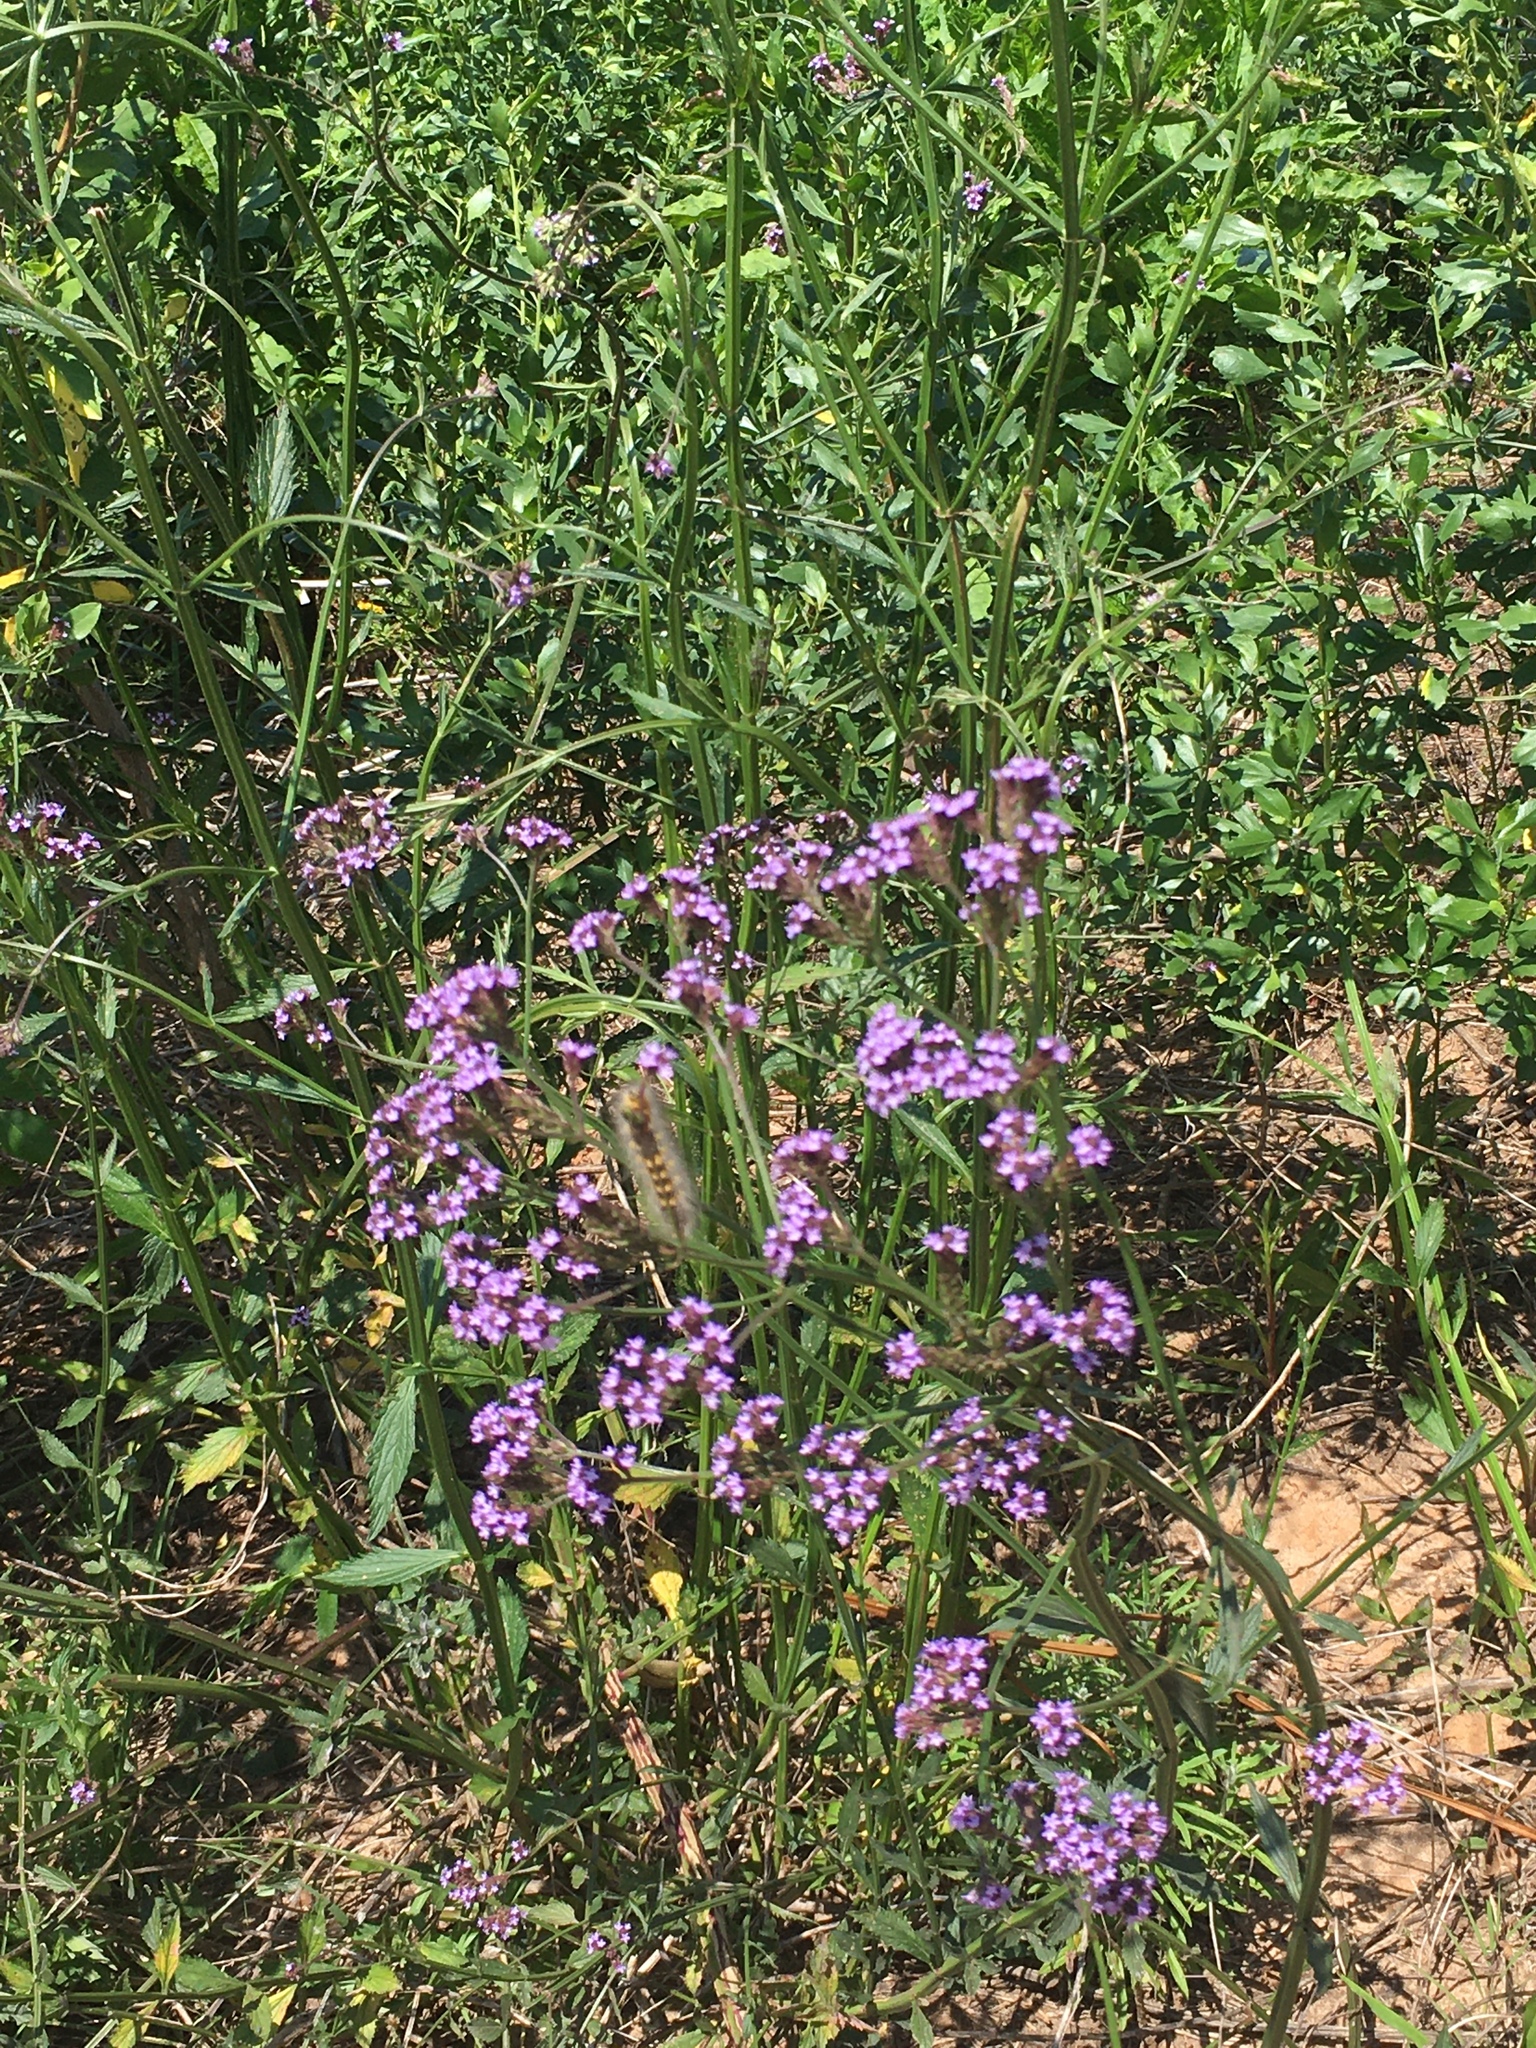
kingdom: Plantae
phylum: Tracheophyta
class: Magnoliopsida
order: Lamiales
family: Verbenaceae
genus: Verbena
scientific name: Verbena brasiliensis
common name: Brazilian vervain
